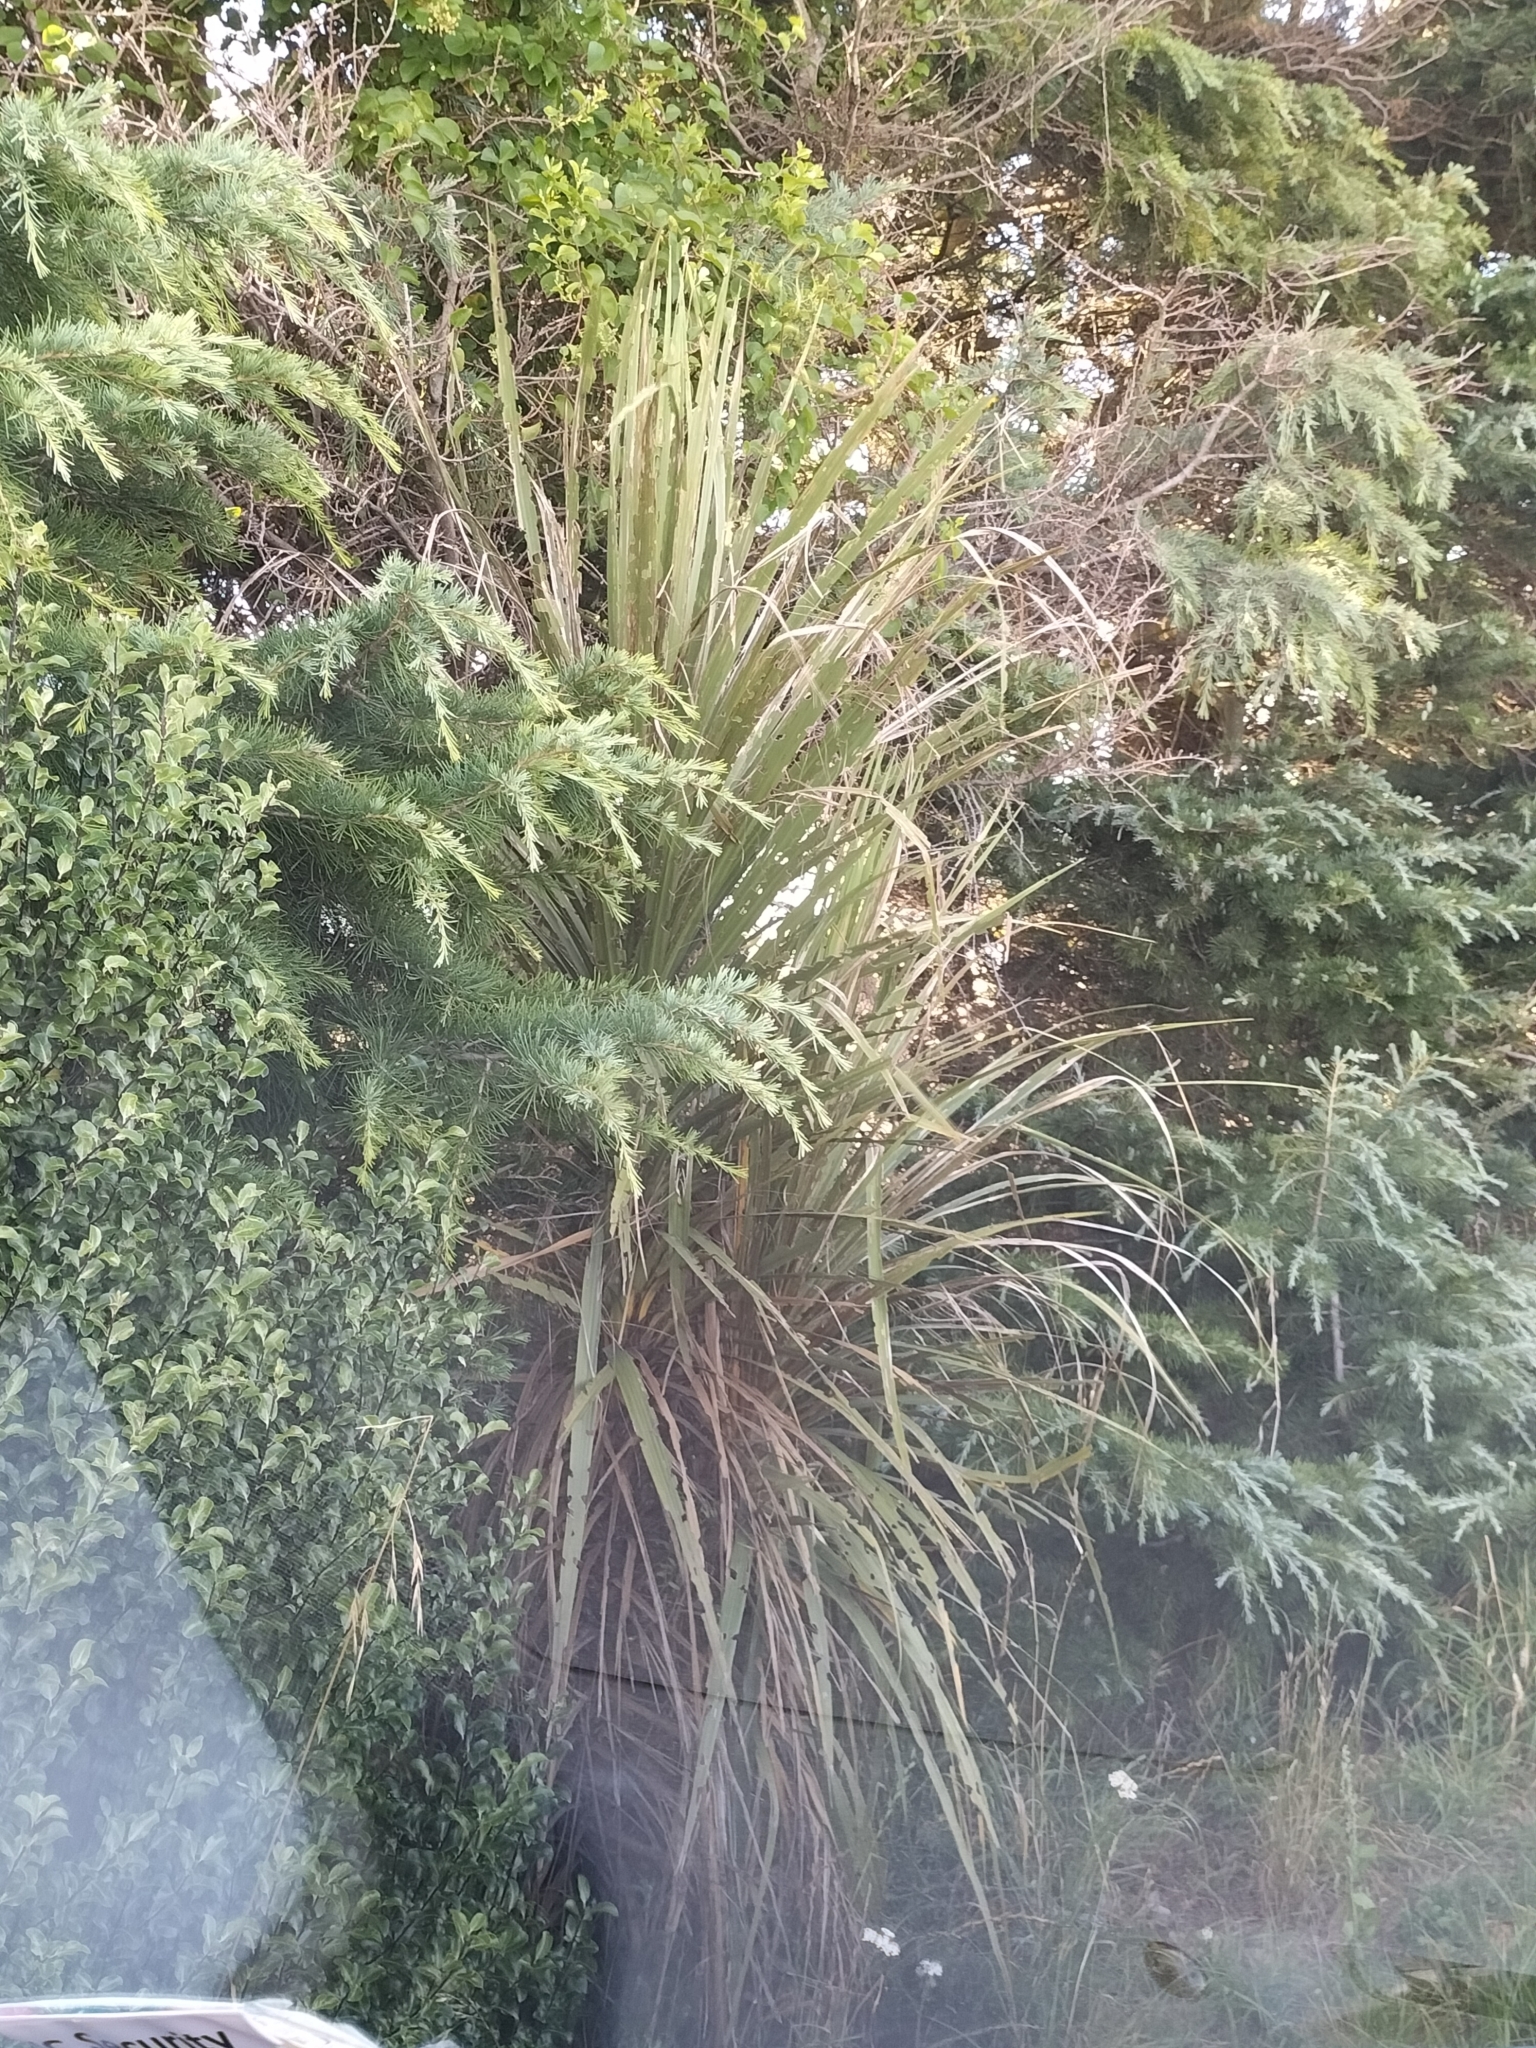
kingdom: Plantae
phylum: Tracheophyta
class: Liliopsida
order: Asparagales
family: Asparagaceae
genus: Cordyline
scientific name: Cordyline australis
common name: Cabbage-palm
